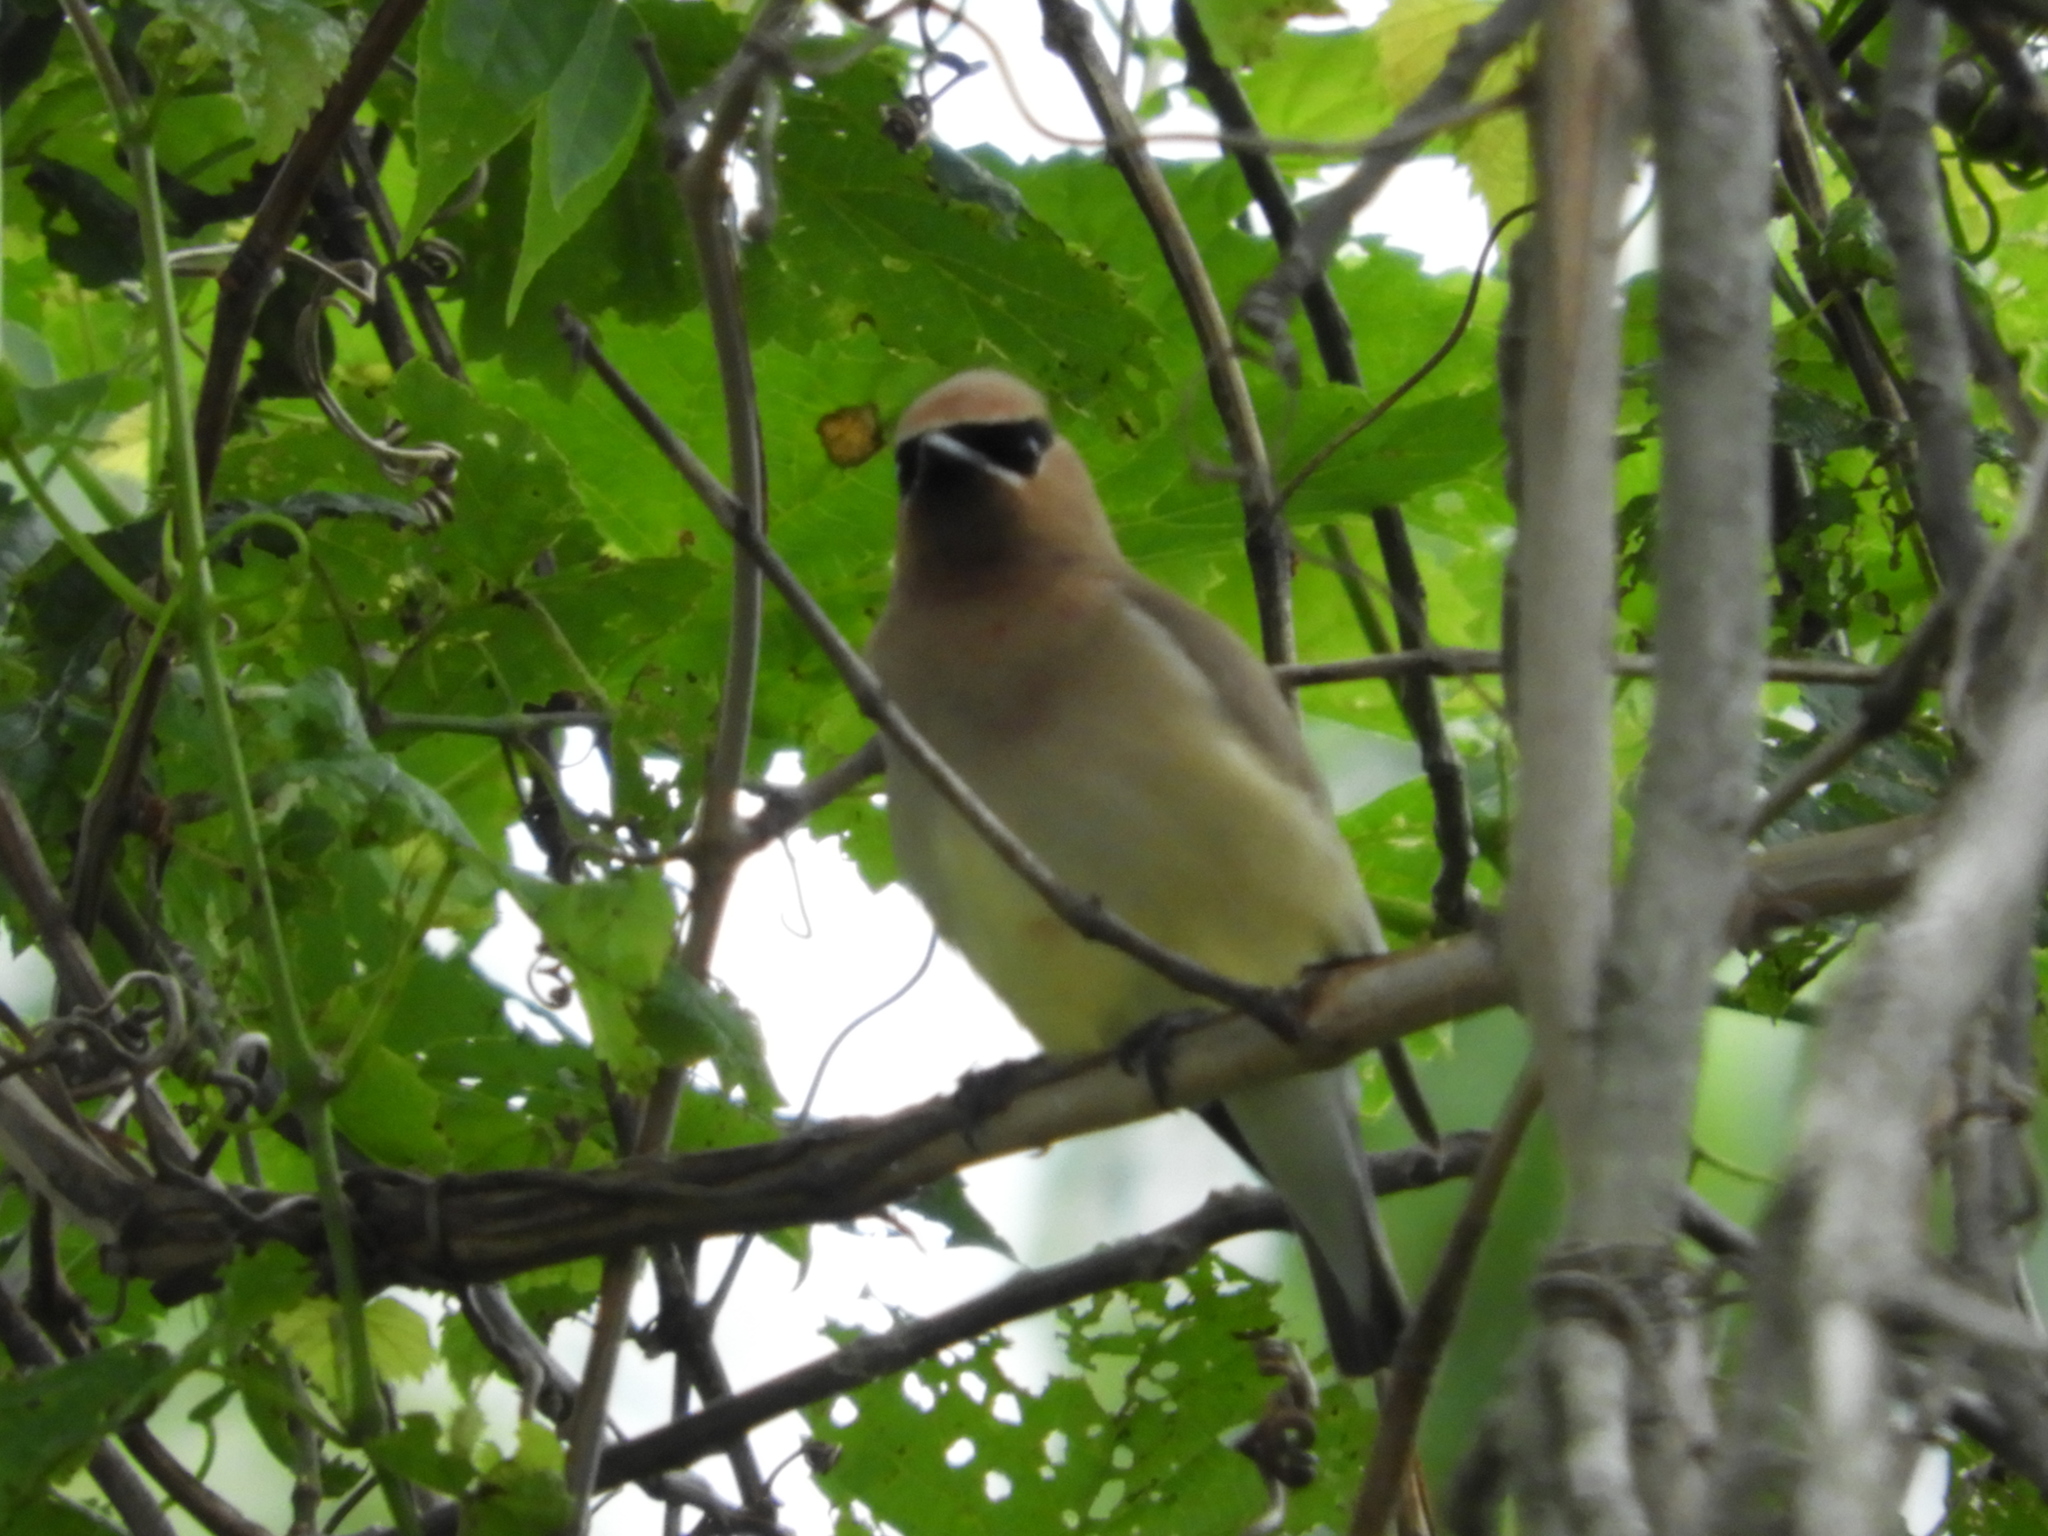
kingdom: Animalia
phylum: Chordata
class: Aves
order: Passeriformes
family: Bombycillidae
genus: Bombycilla
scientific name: Bombycilla cedrorum
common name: Cedar waxwing
